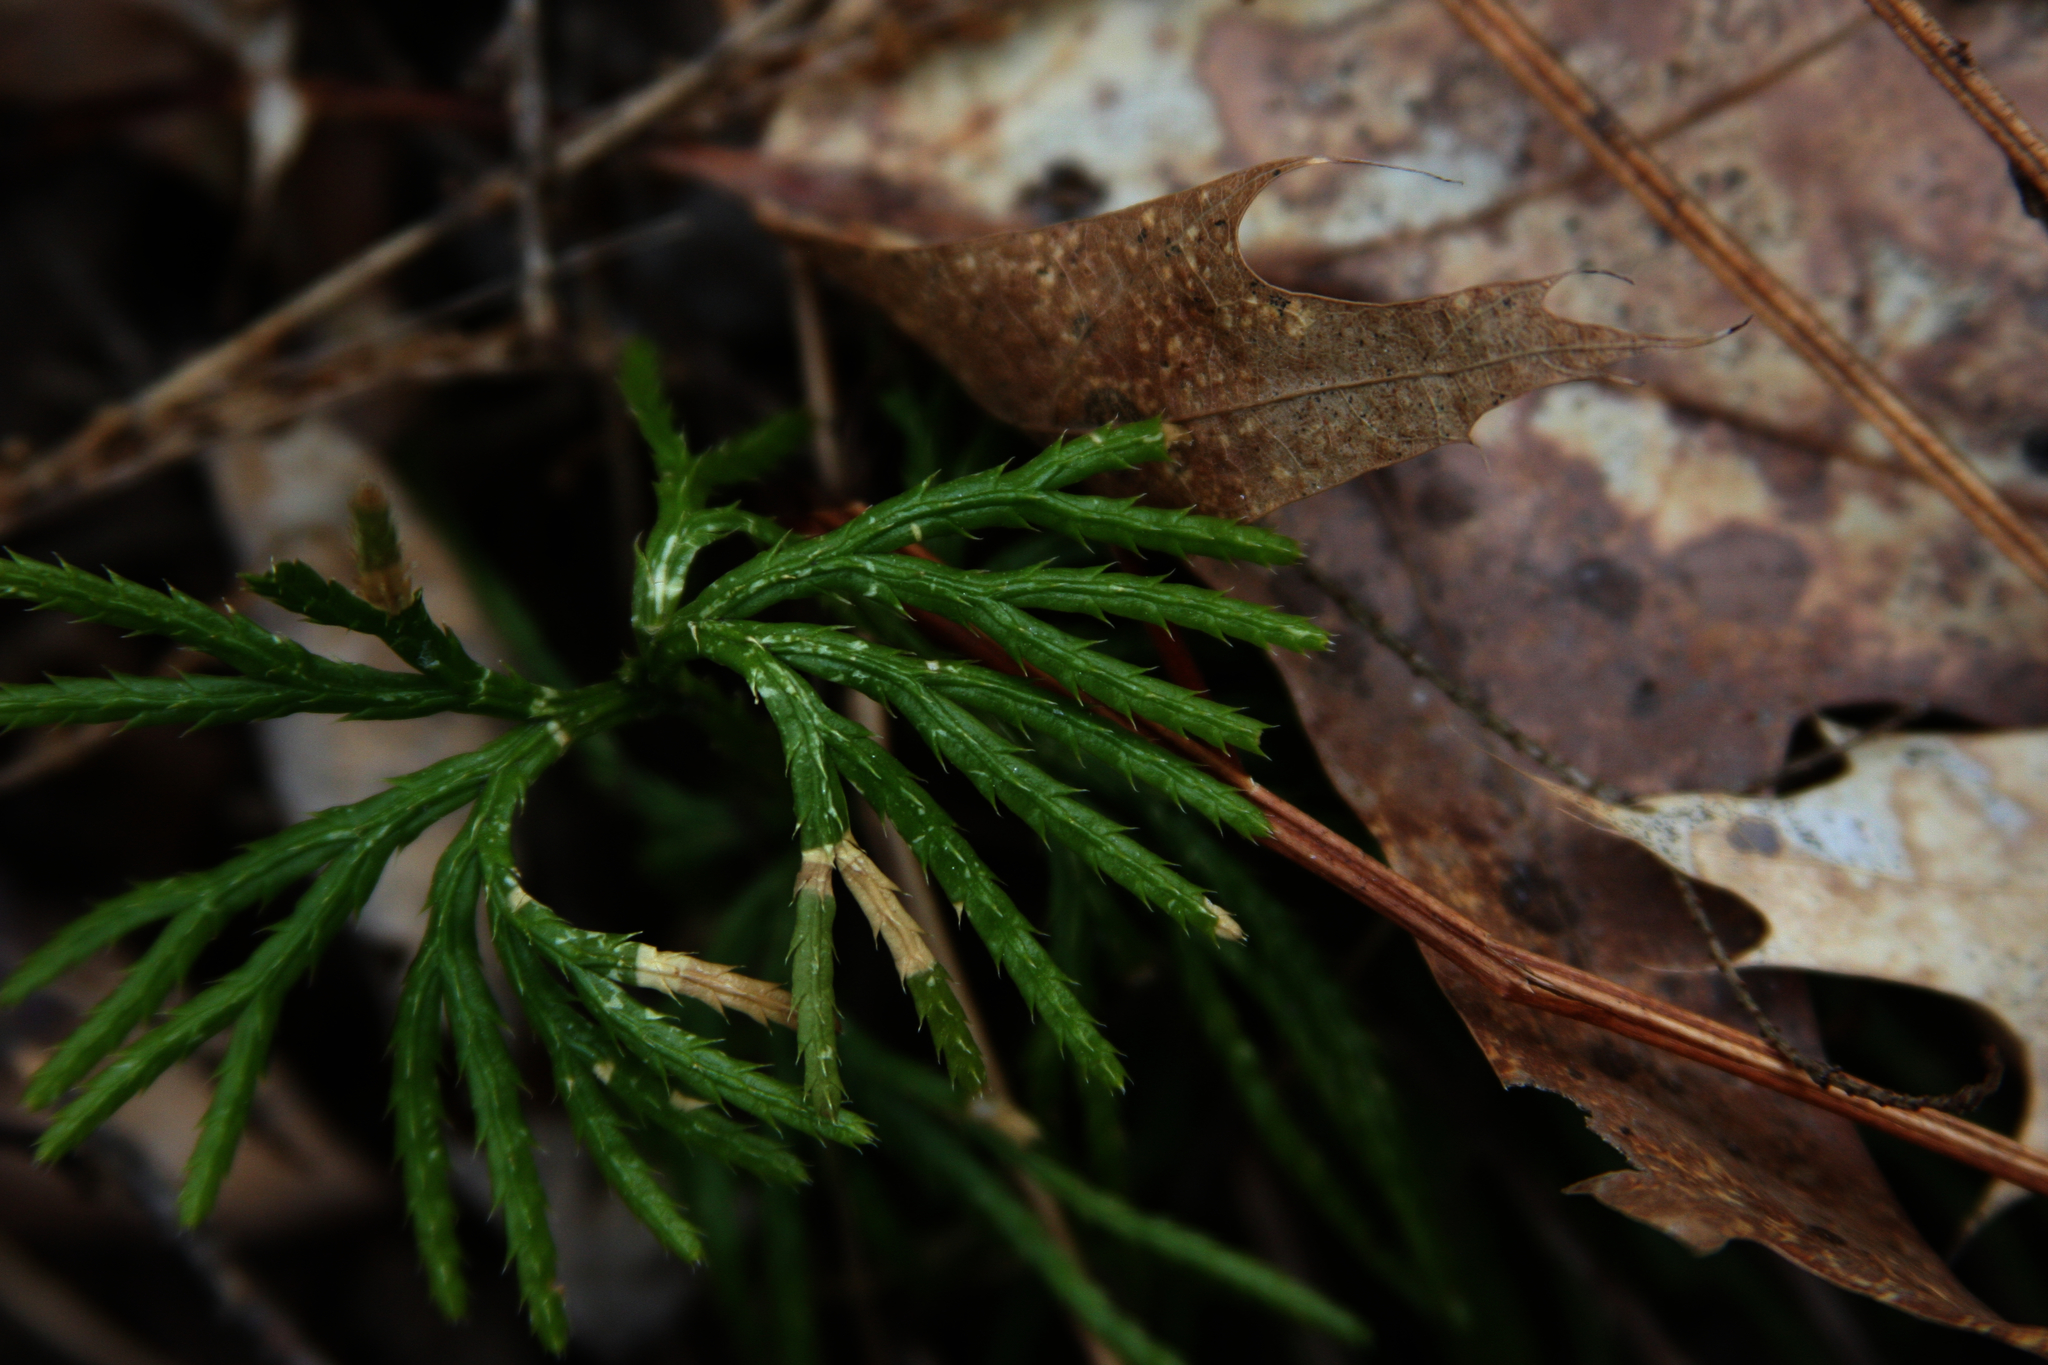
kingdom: Plantae
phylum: Tracheophyta
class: Lycopodiopsida
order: Lycopodiales
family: Lycopodiaceae
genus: Diphasiastrum
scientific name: Diphasiastrum digitatum
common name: Southern running-pine
